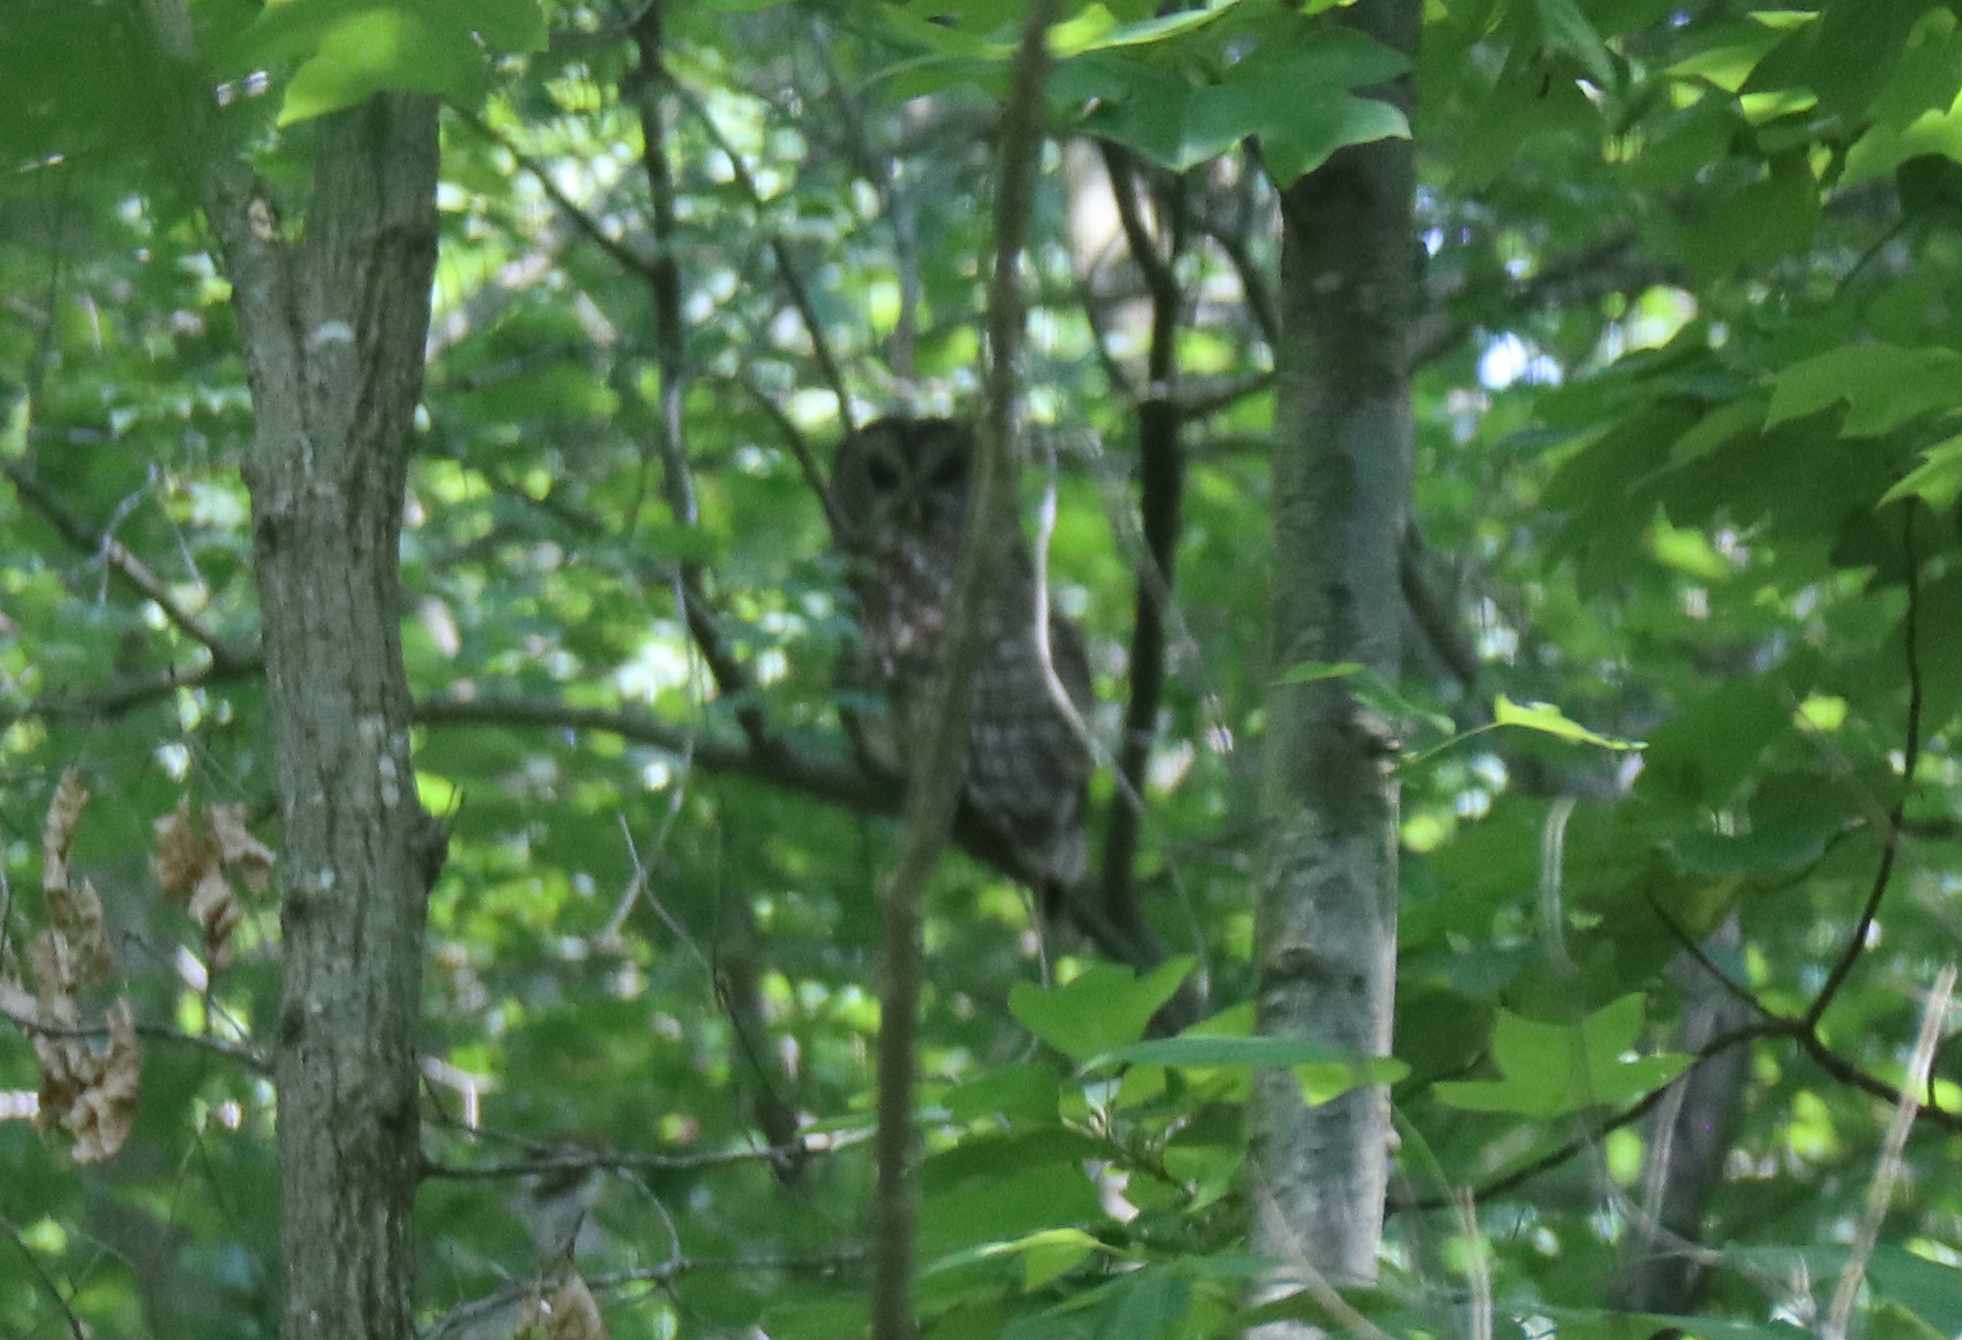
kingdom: Animalia
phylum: Chordata
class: Aves
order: Strigiformes
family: Strigidae
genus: Strix
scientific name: Strix varia
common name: Barred owl
